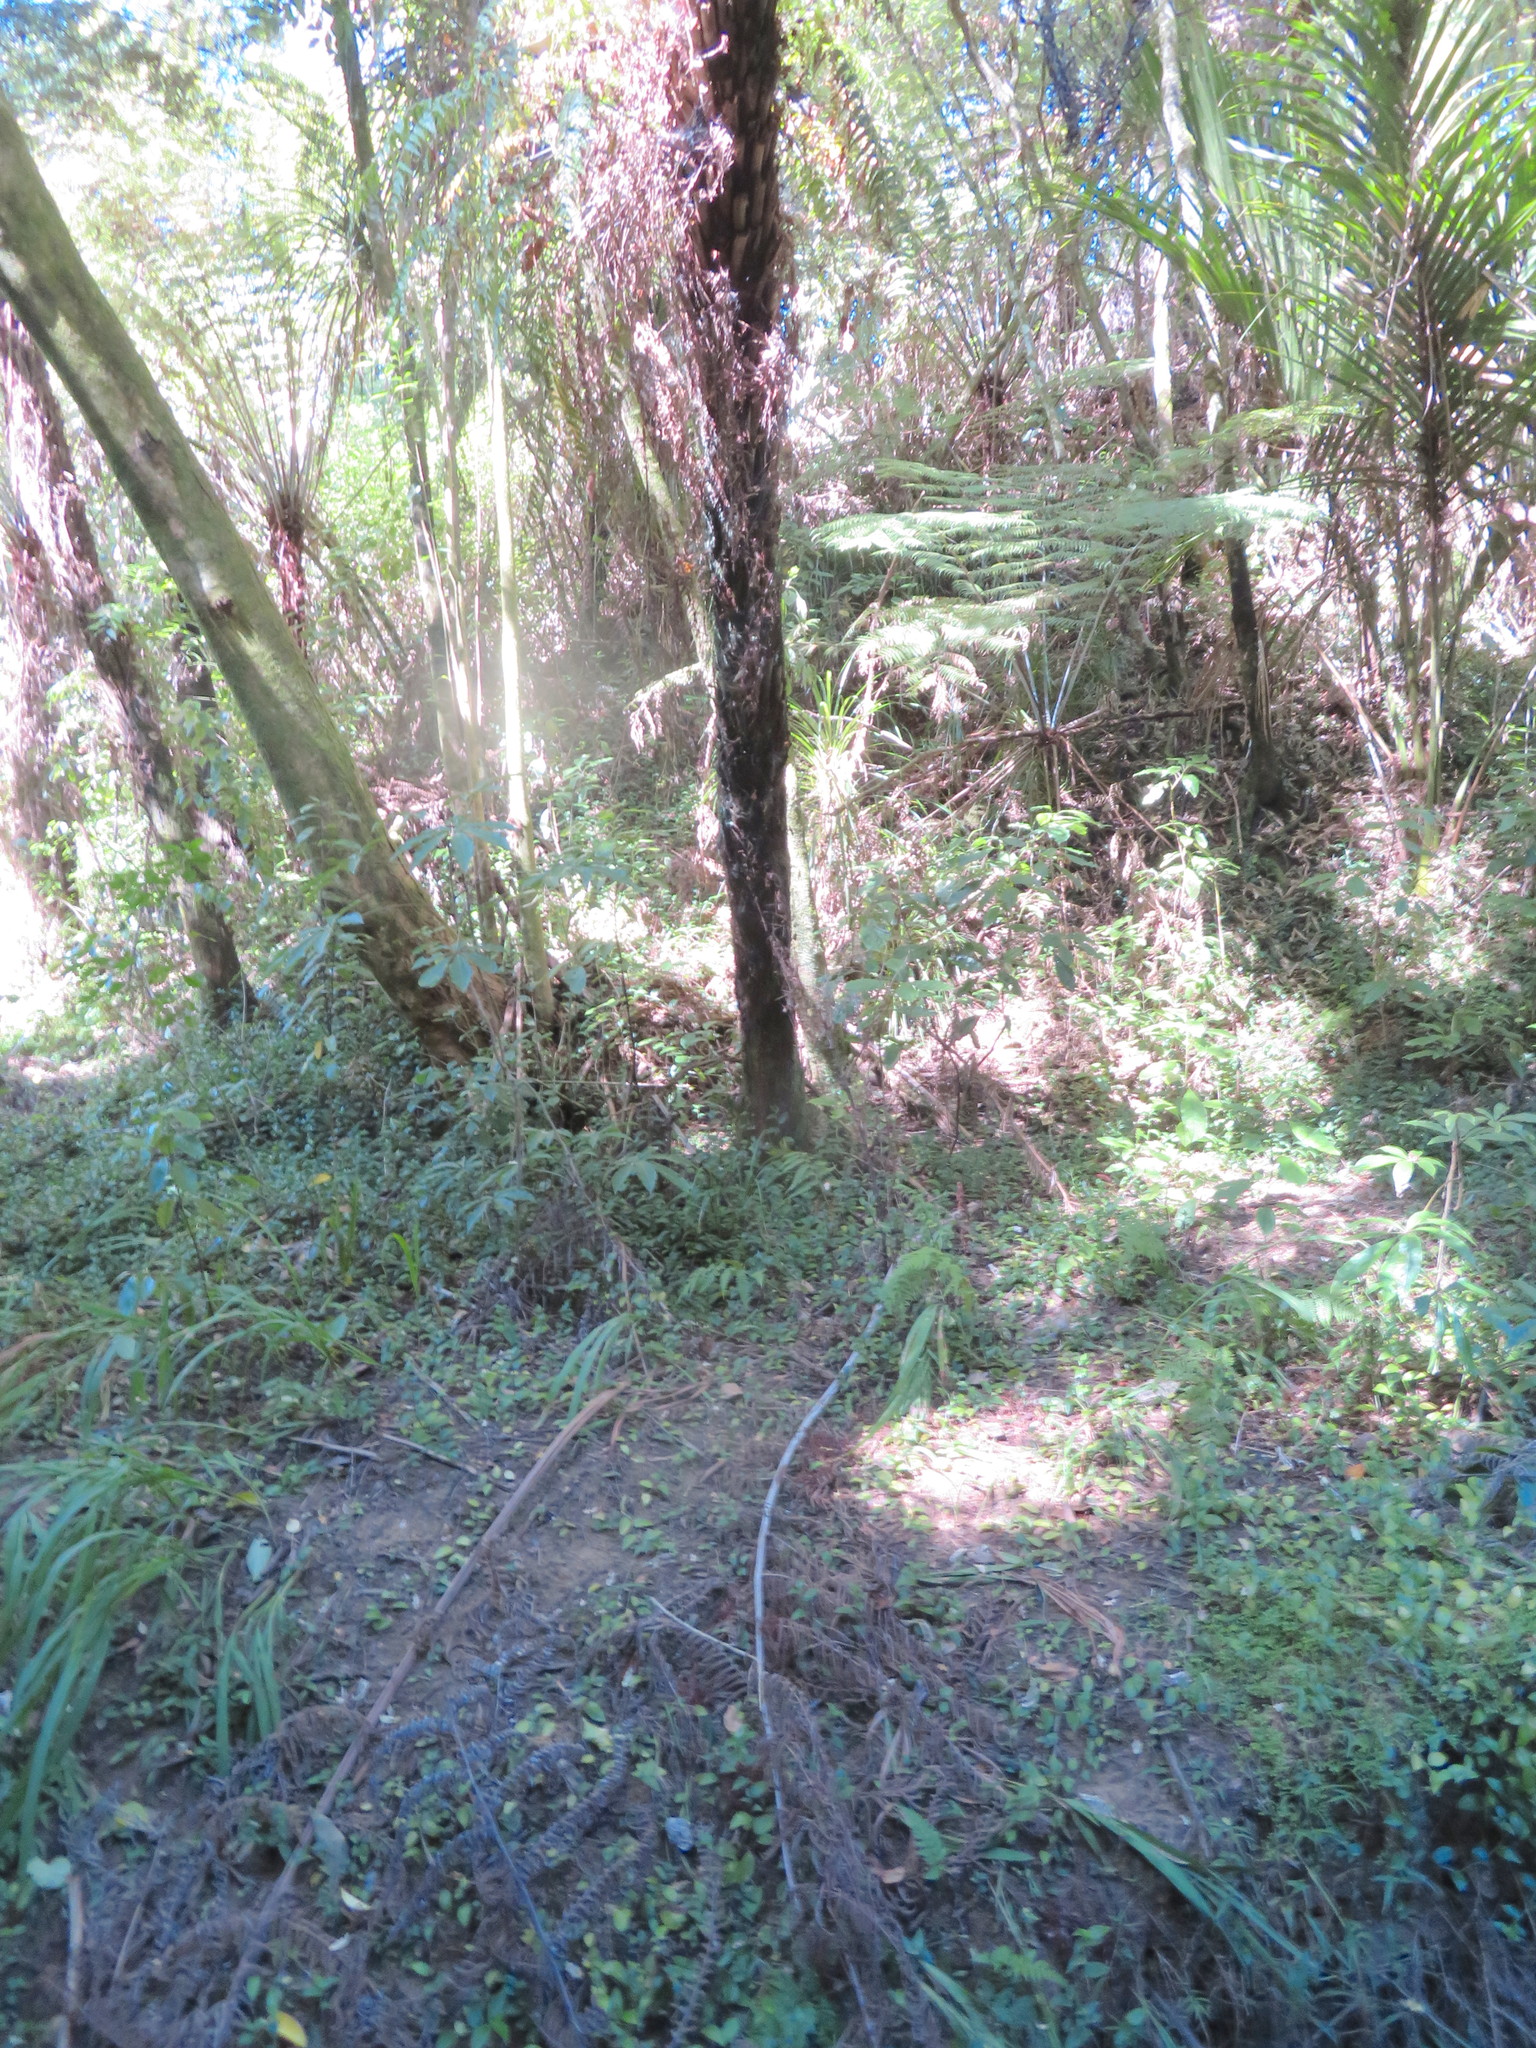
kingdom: Plantae
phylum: Tracheophyta
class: Liliopsida
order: Arecales
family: Arecaceae
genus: Rhopalostylis
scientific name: Rhopalostylis sapida
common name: Feather-duster palm
